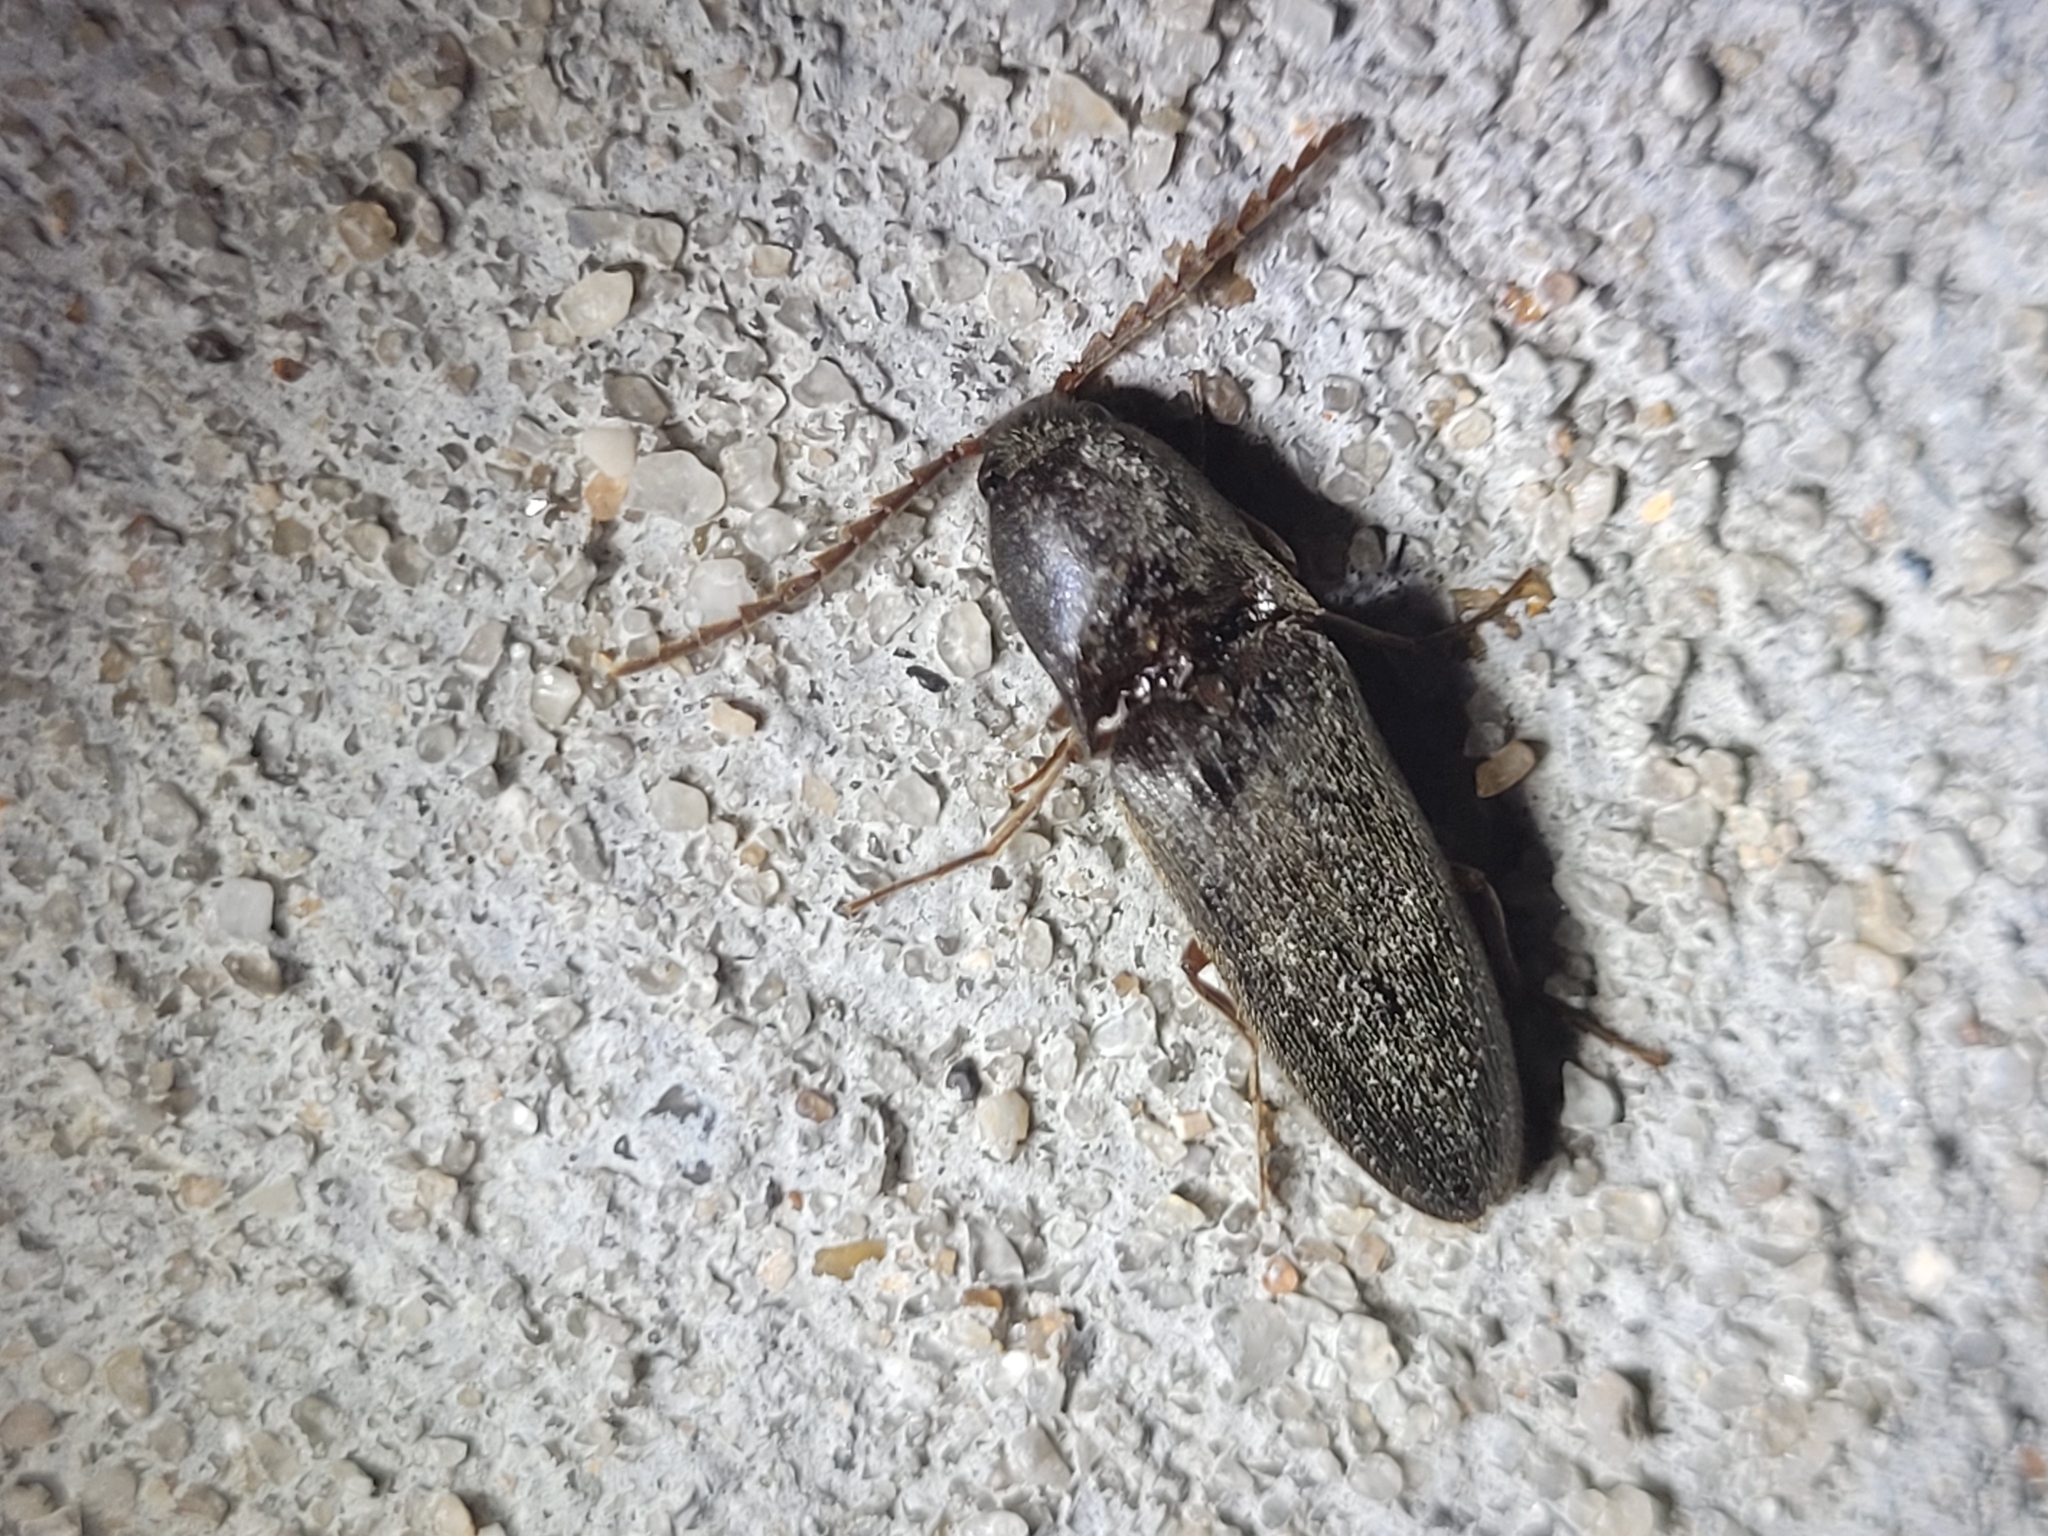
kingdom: Animalia
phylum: Arthropoda
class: Insecta
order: Coleoptera
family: Elateridae
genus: Megapenthes
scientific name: Megapenthes insignis
